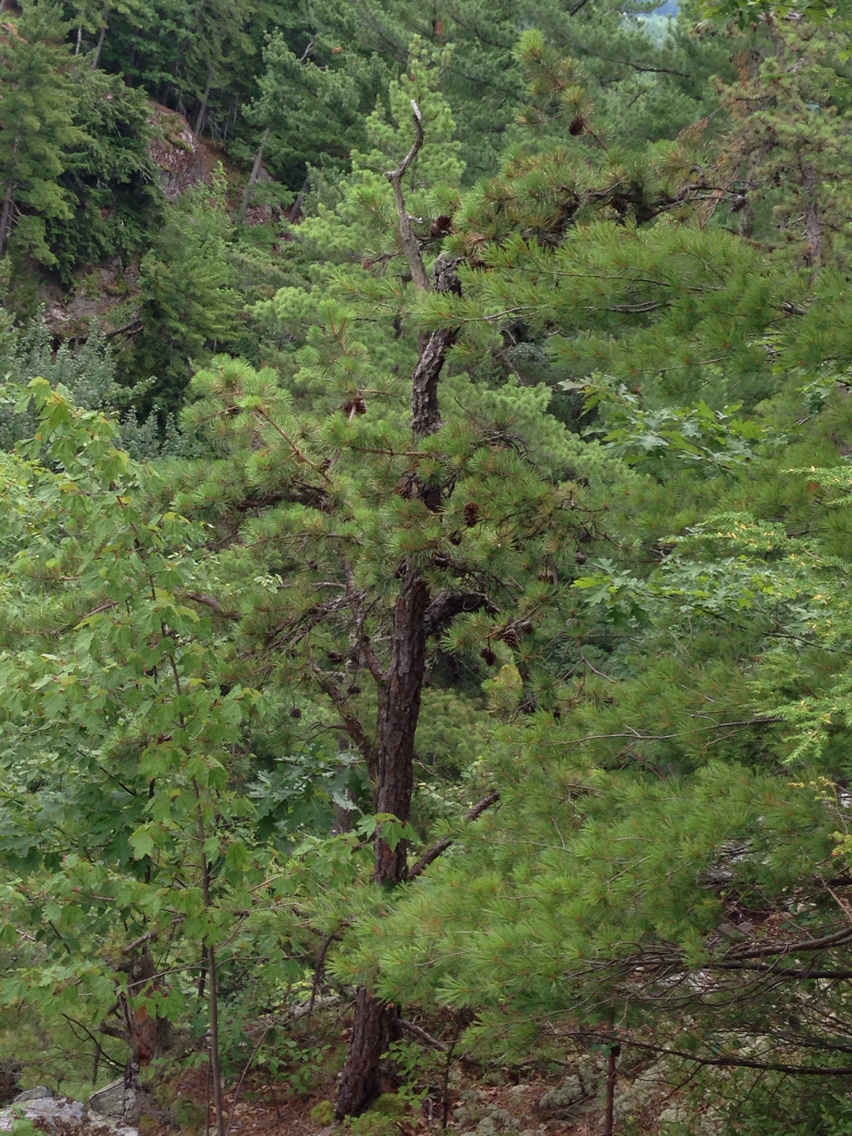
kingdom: Plantae
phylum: Tracheophyta
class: Pinopsida
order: Pinales
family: Pinaceae
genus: Pinus
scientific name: Pinus rigida
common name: Pitch pine
